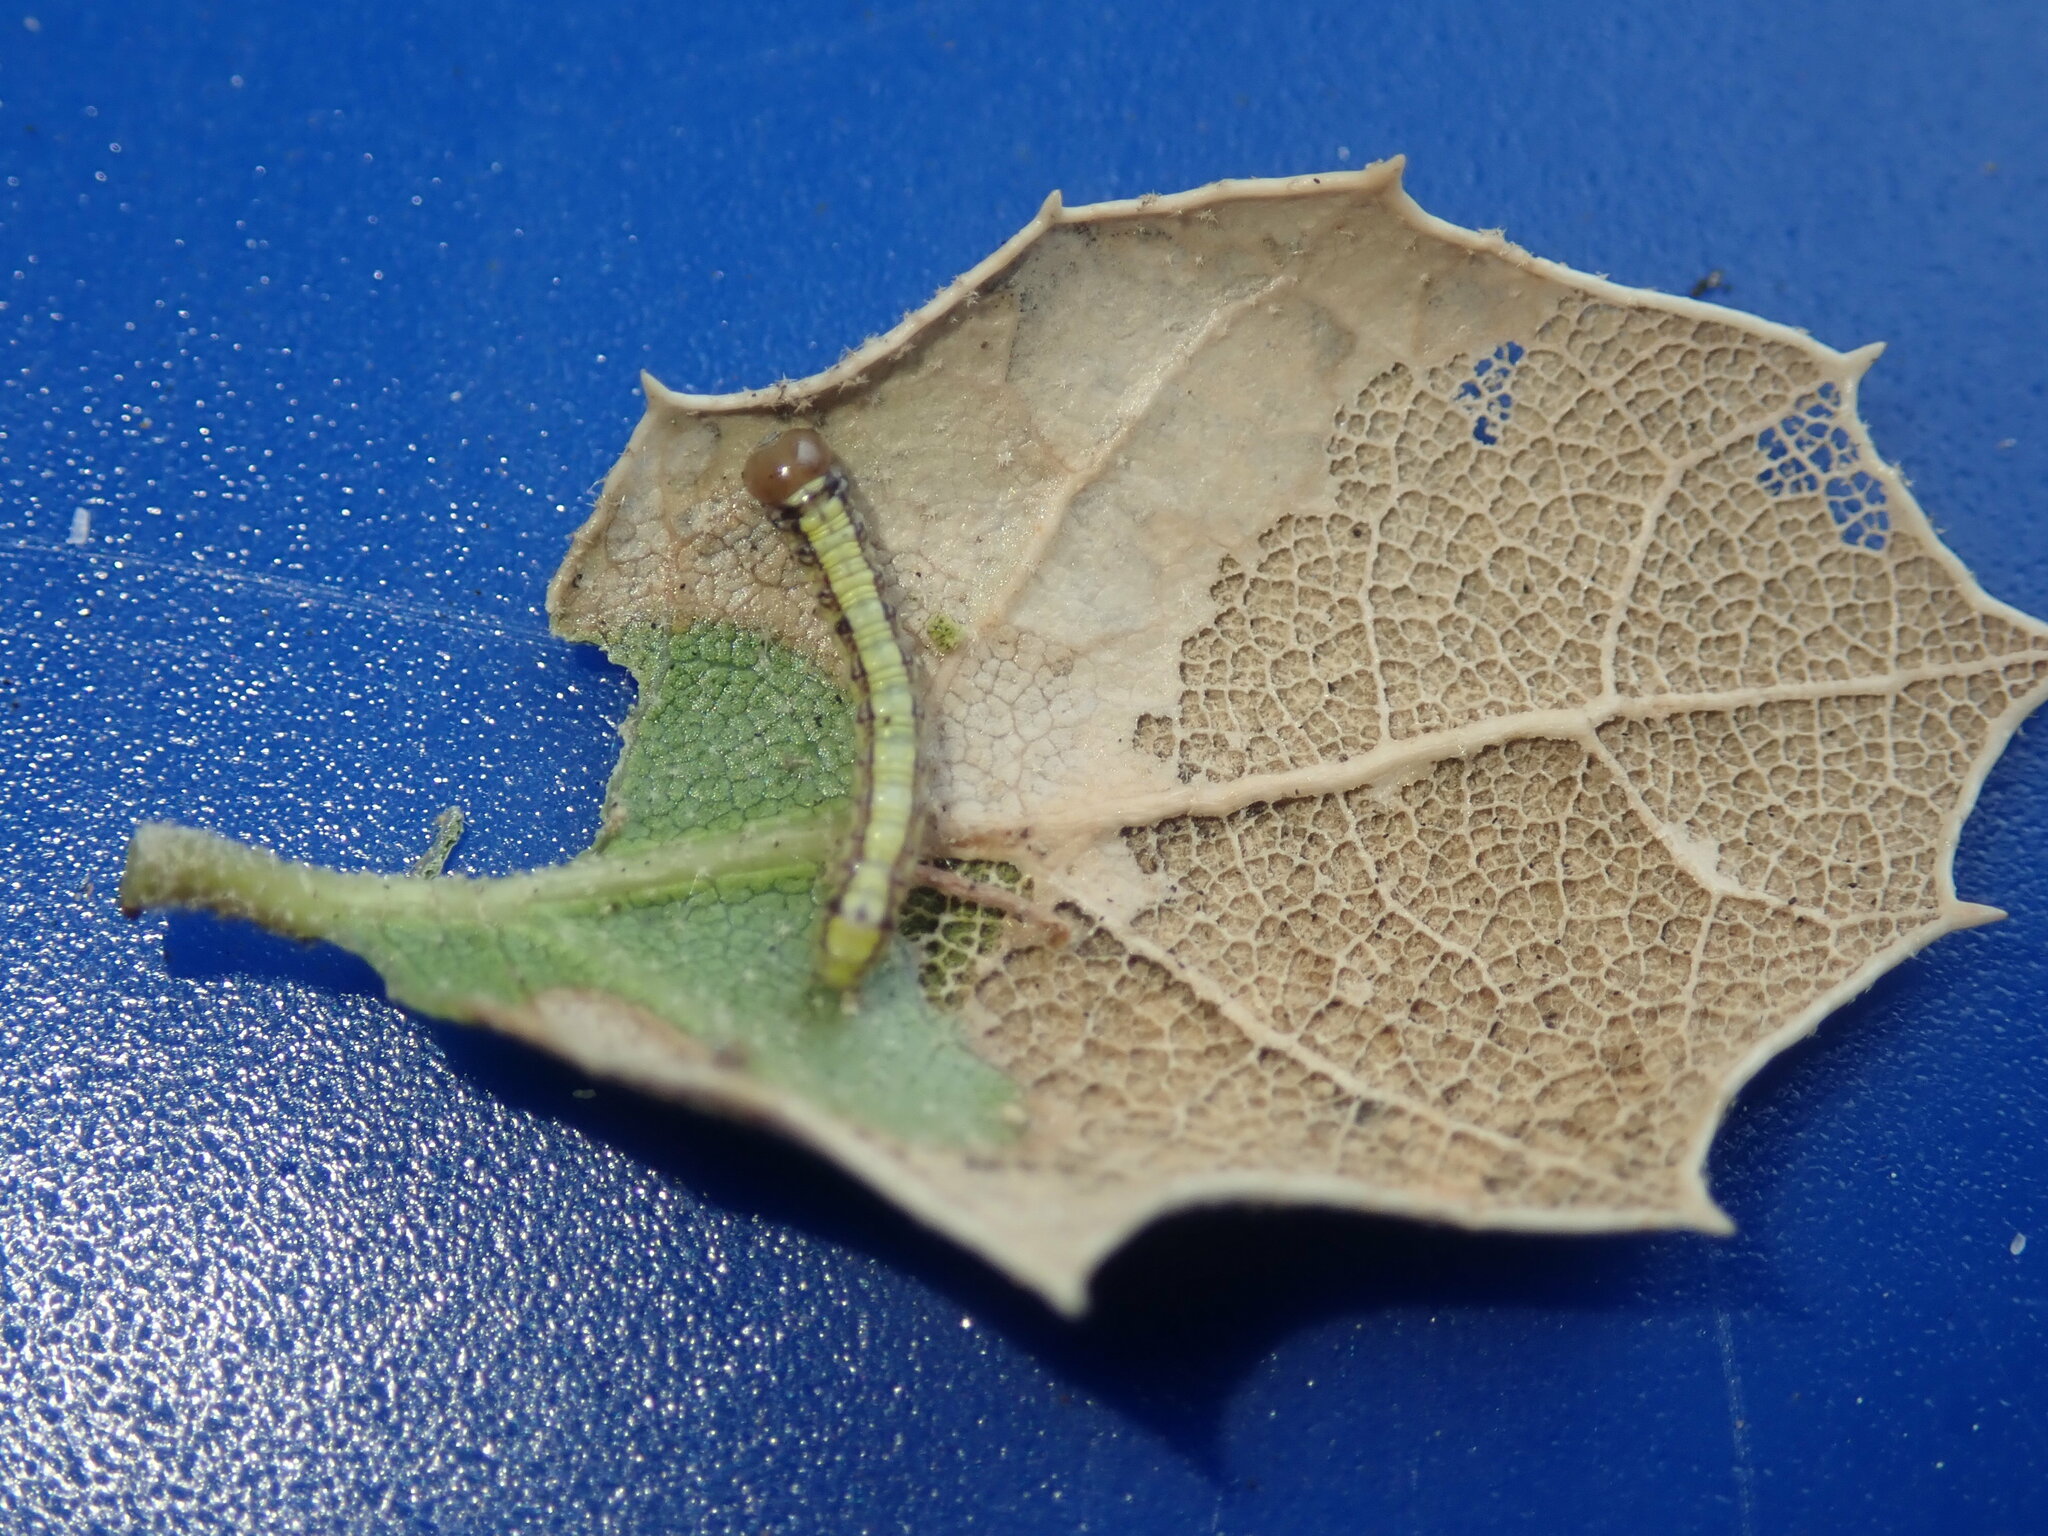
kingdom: Animalia
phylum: Arthropoda
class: Insecta
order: Lepidoptera
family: Notodontidae
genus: Phryganidia
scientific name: Phryganidia californica
